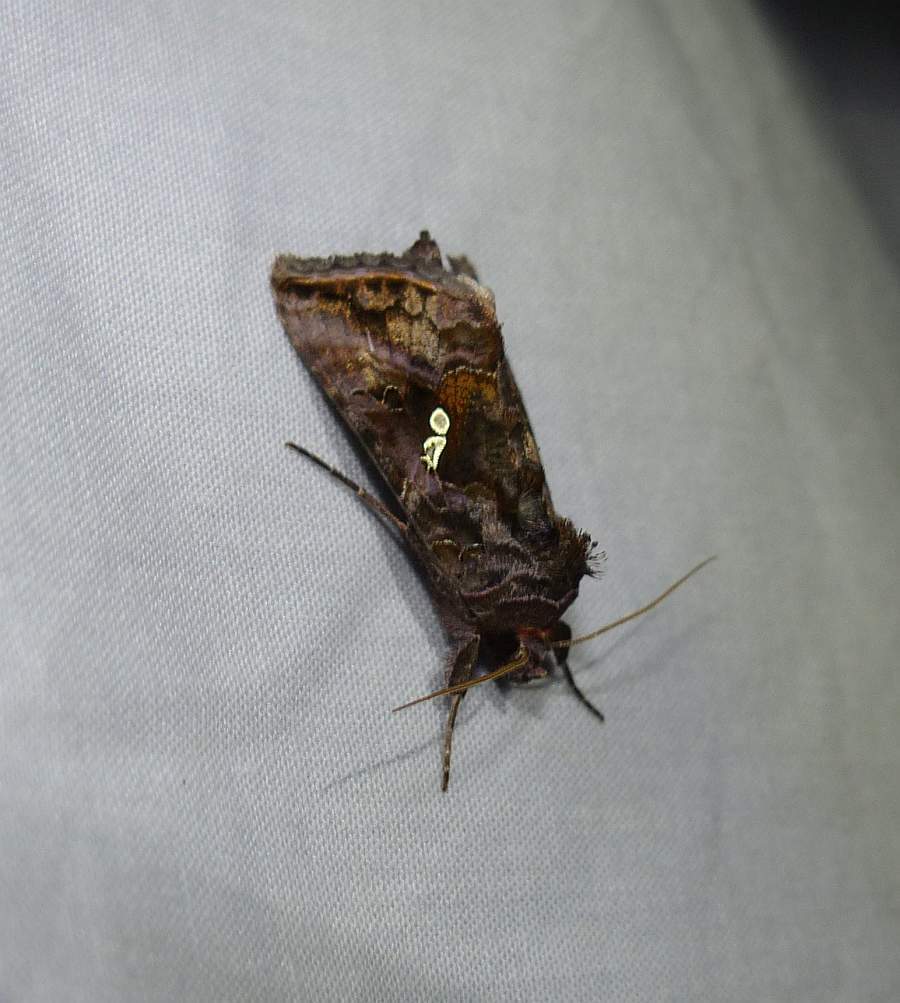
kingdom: Animalia
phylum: Arthropoda
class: Insecta
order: Lepidoptera
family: Noctuidae
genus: Autographa
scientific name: Autographa precationis
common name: Common looper moth
